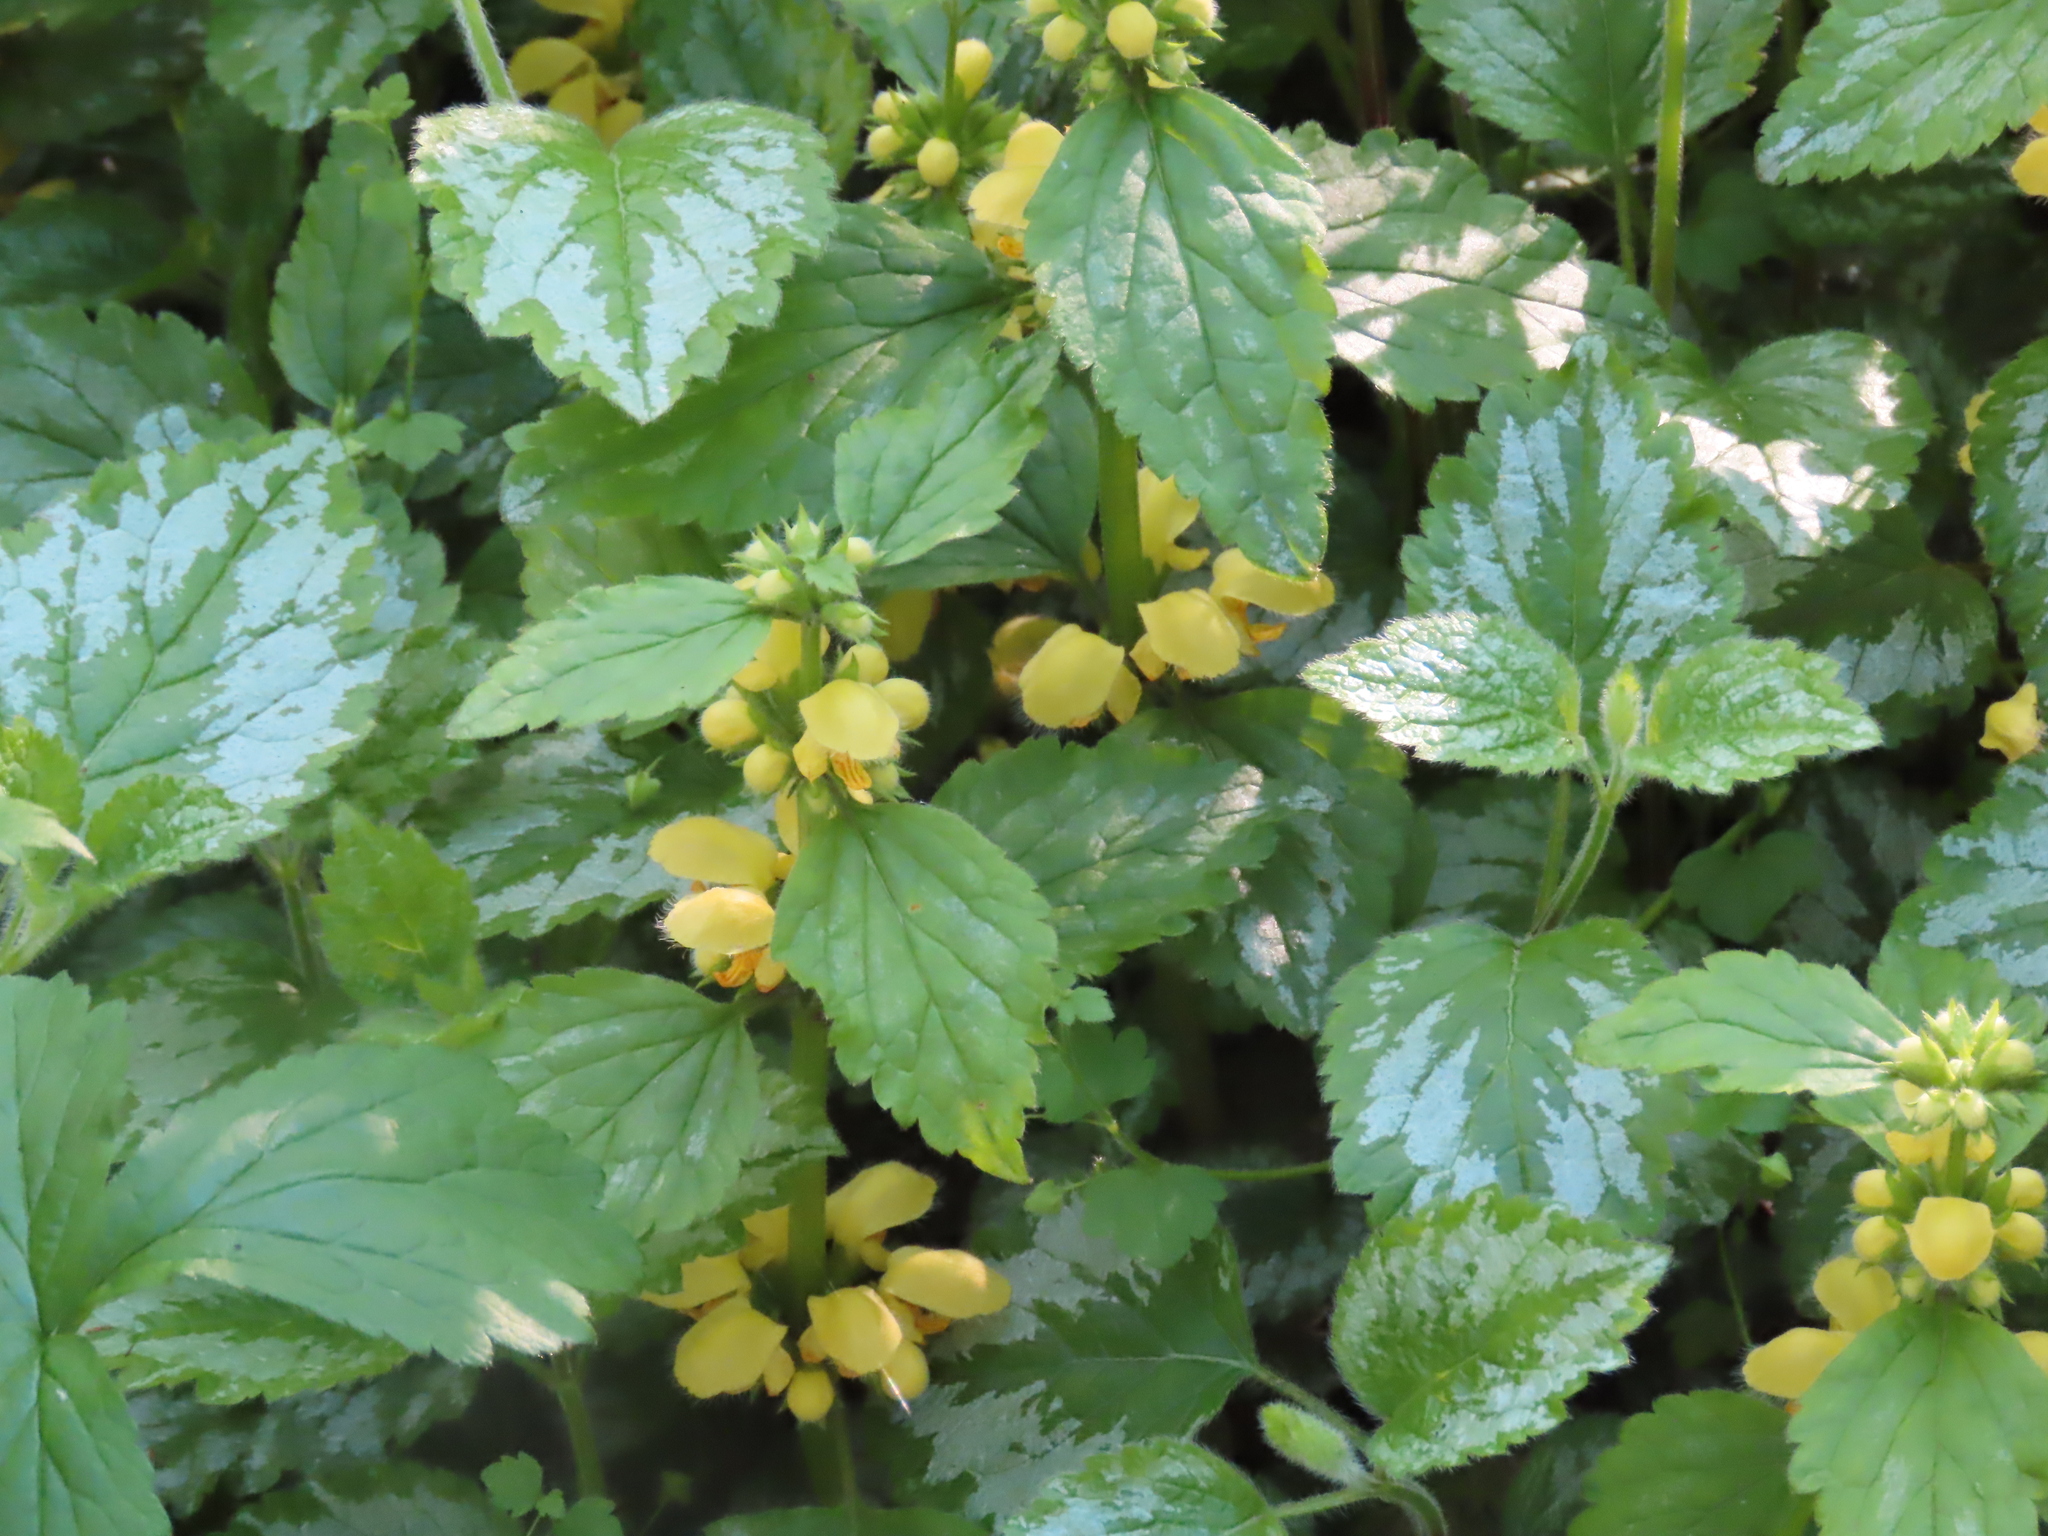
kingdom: Plantae
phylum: Tracheophyta
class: Magnoliopsida
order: Lamiales
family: Lamiaceae
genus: Lamium
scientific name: Lamium galeobdolon
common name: Yellow archangel
